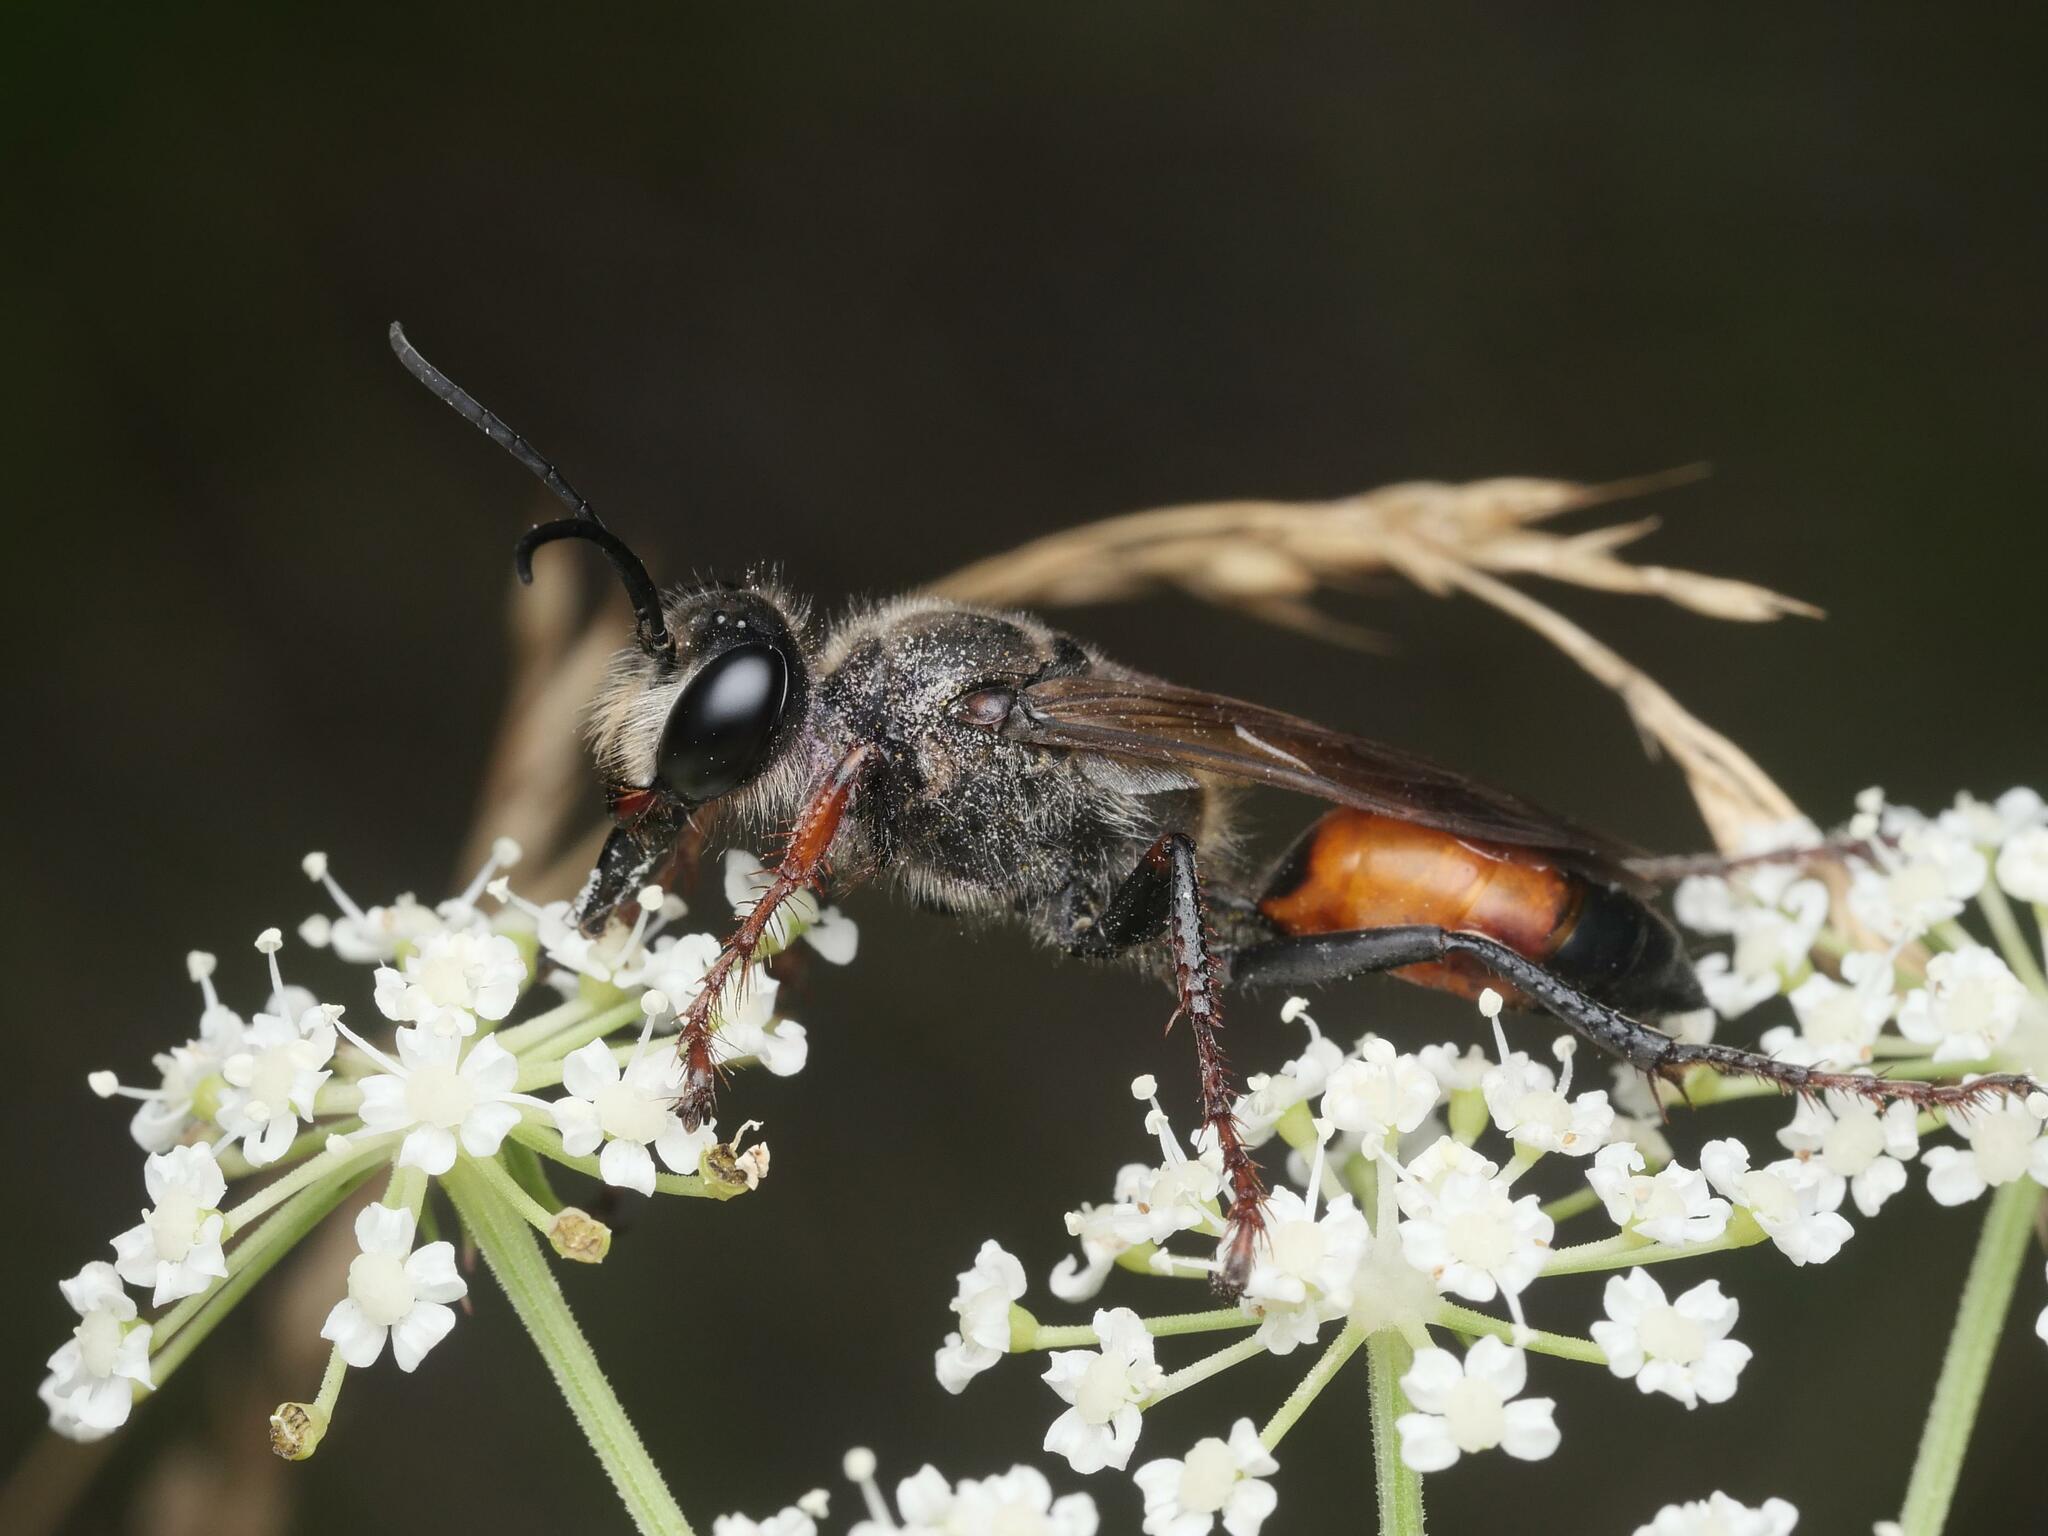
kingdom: Animalia
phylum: Arthropoda
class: Insecta
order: Hymenoptera
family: Sphecidae
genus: Sphex
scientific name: Sphex funerarius
